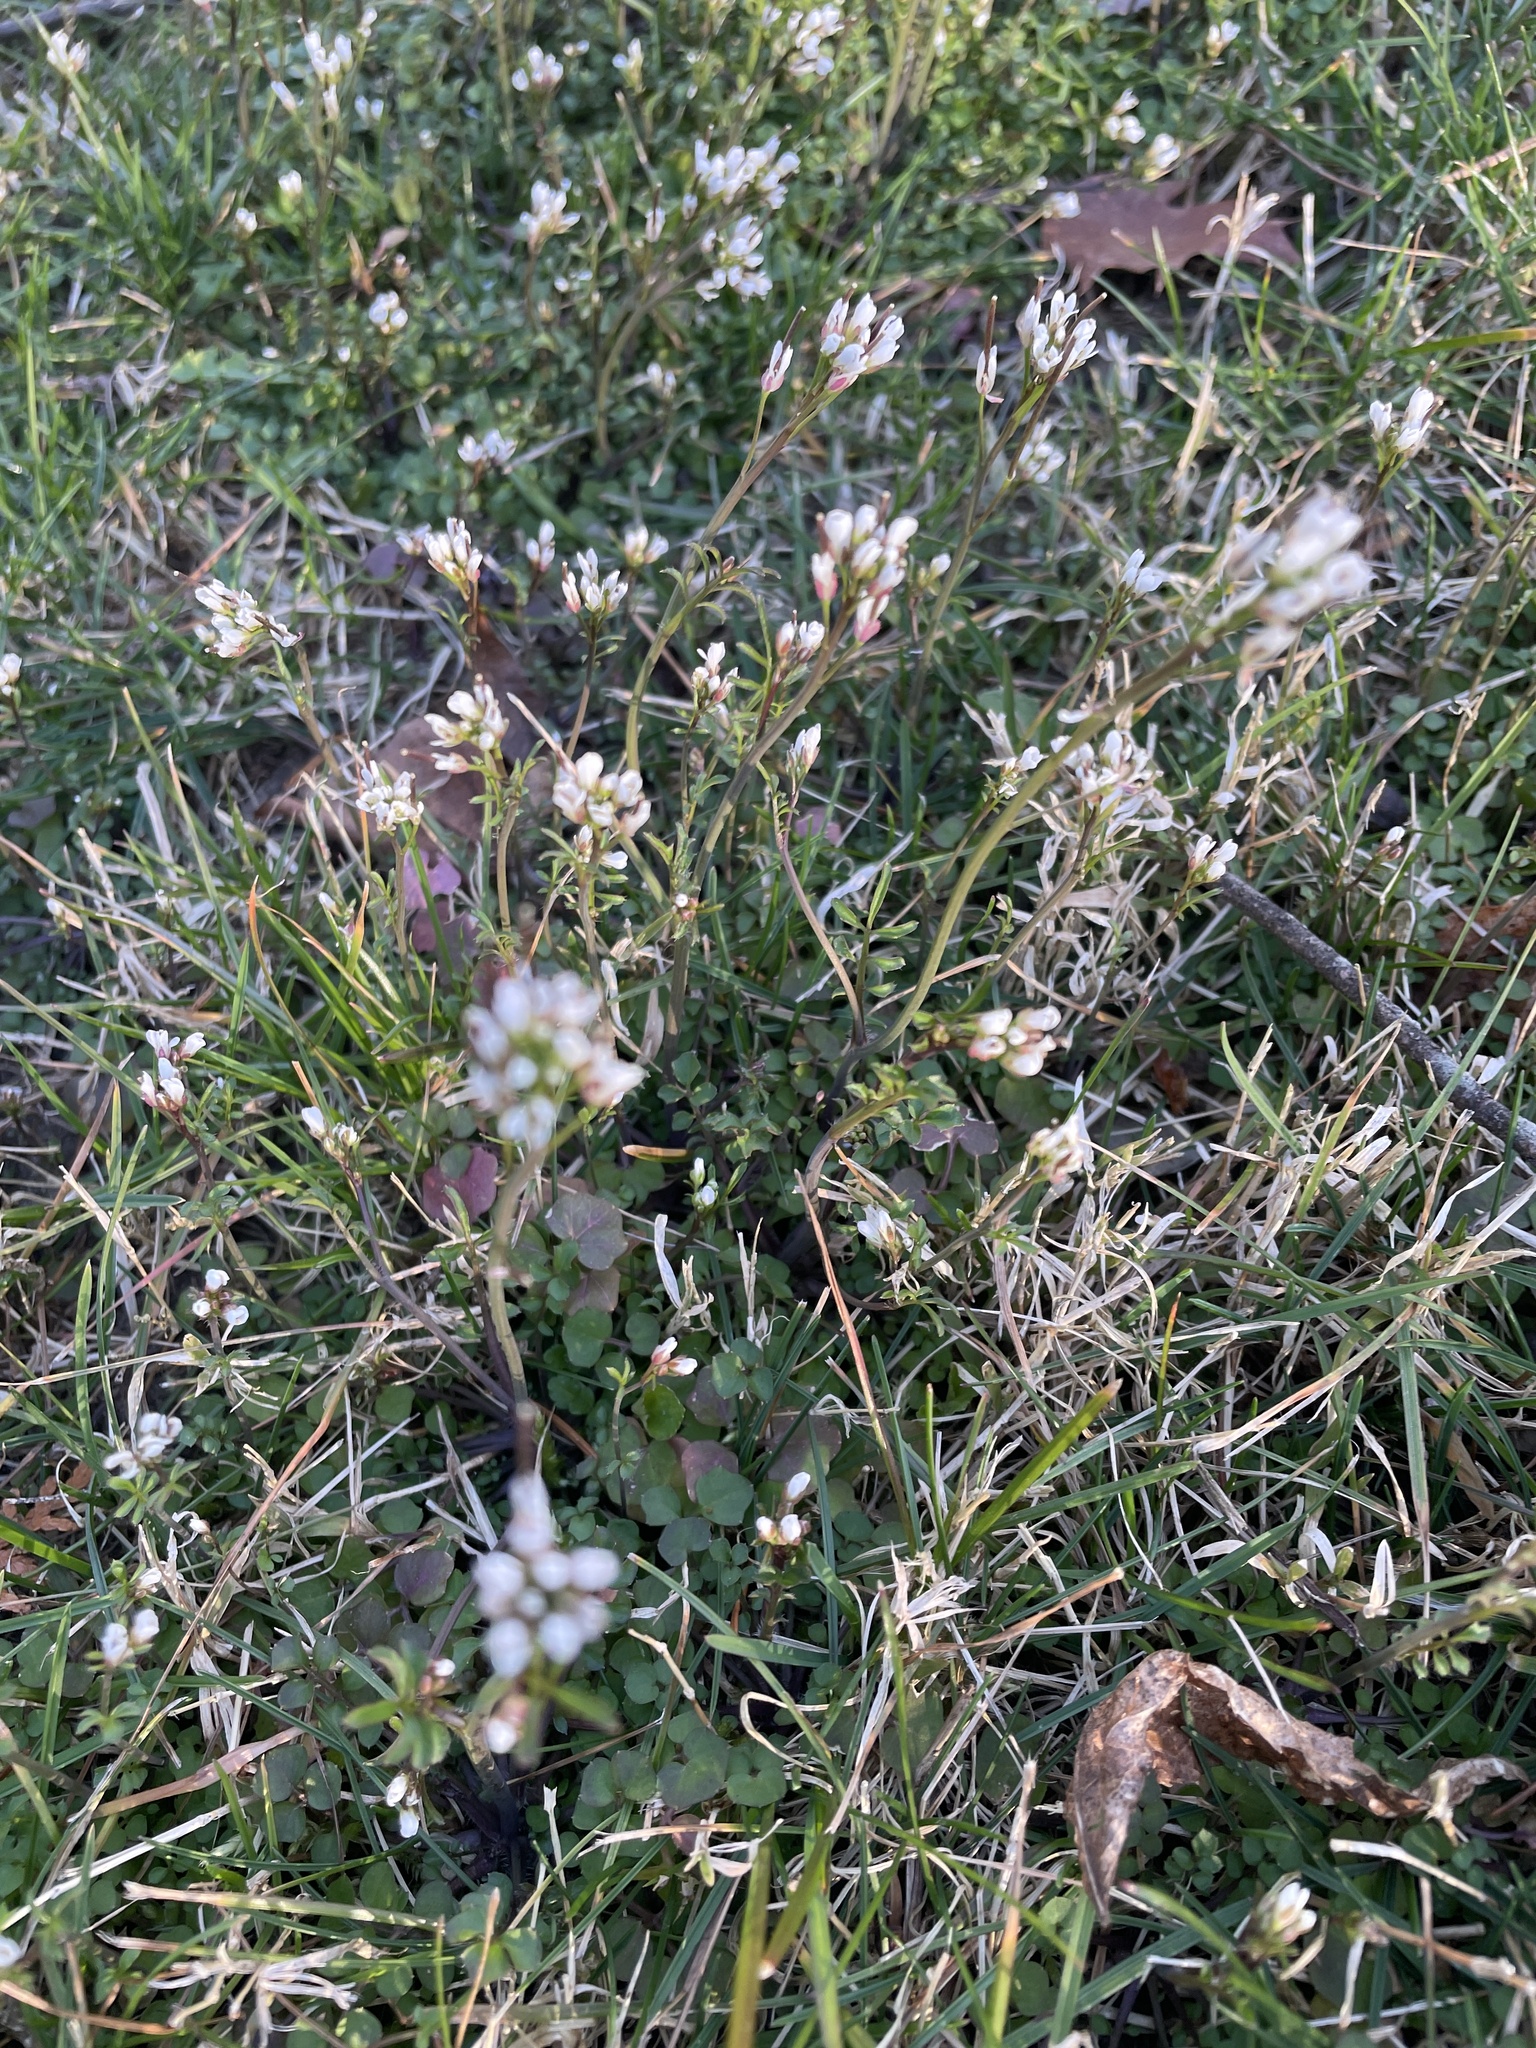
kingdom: Plantae
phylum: Tracheophyta
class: Magnoliopsida
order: Brassicales
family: Brassicaceae
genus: Cardamine
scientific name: Cardamine hirsuta
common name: Hairy bittercress
